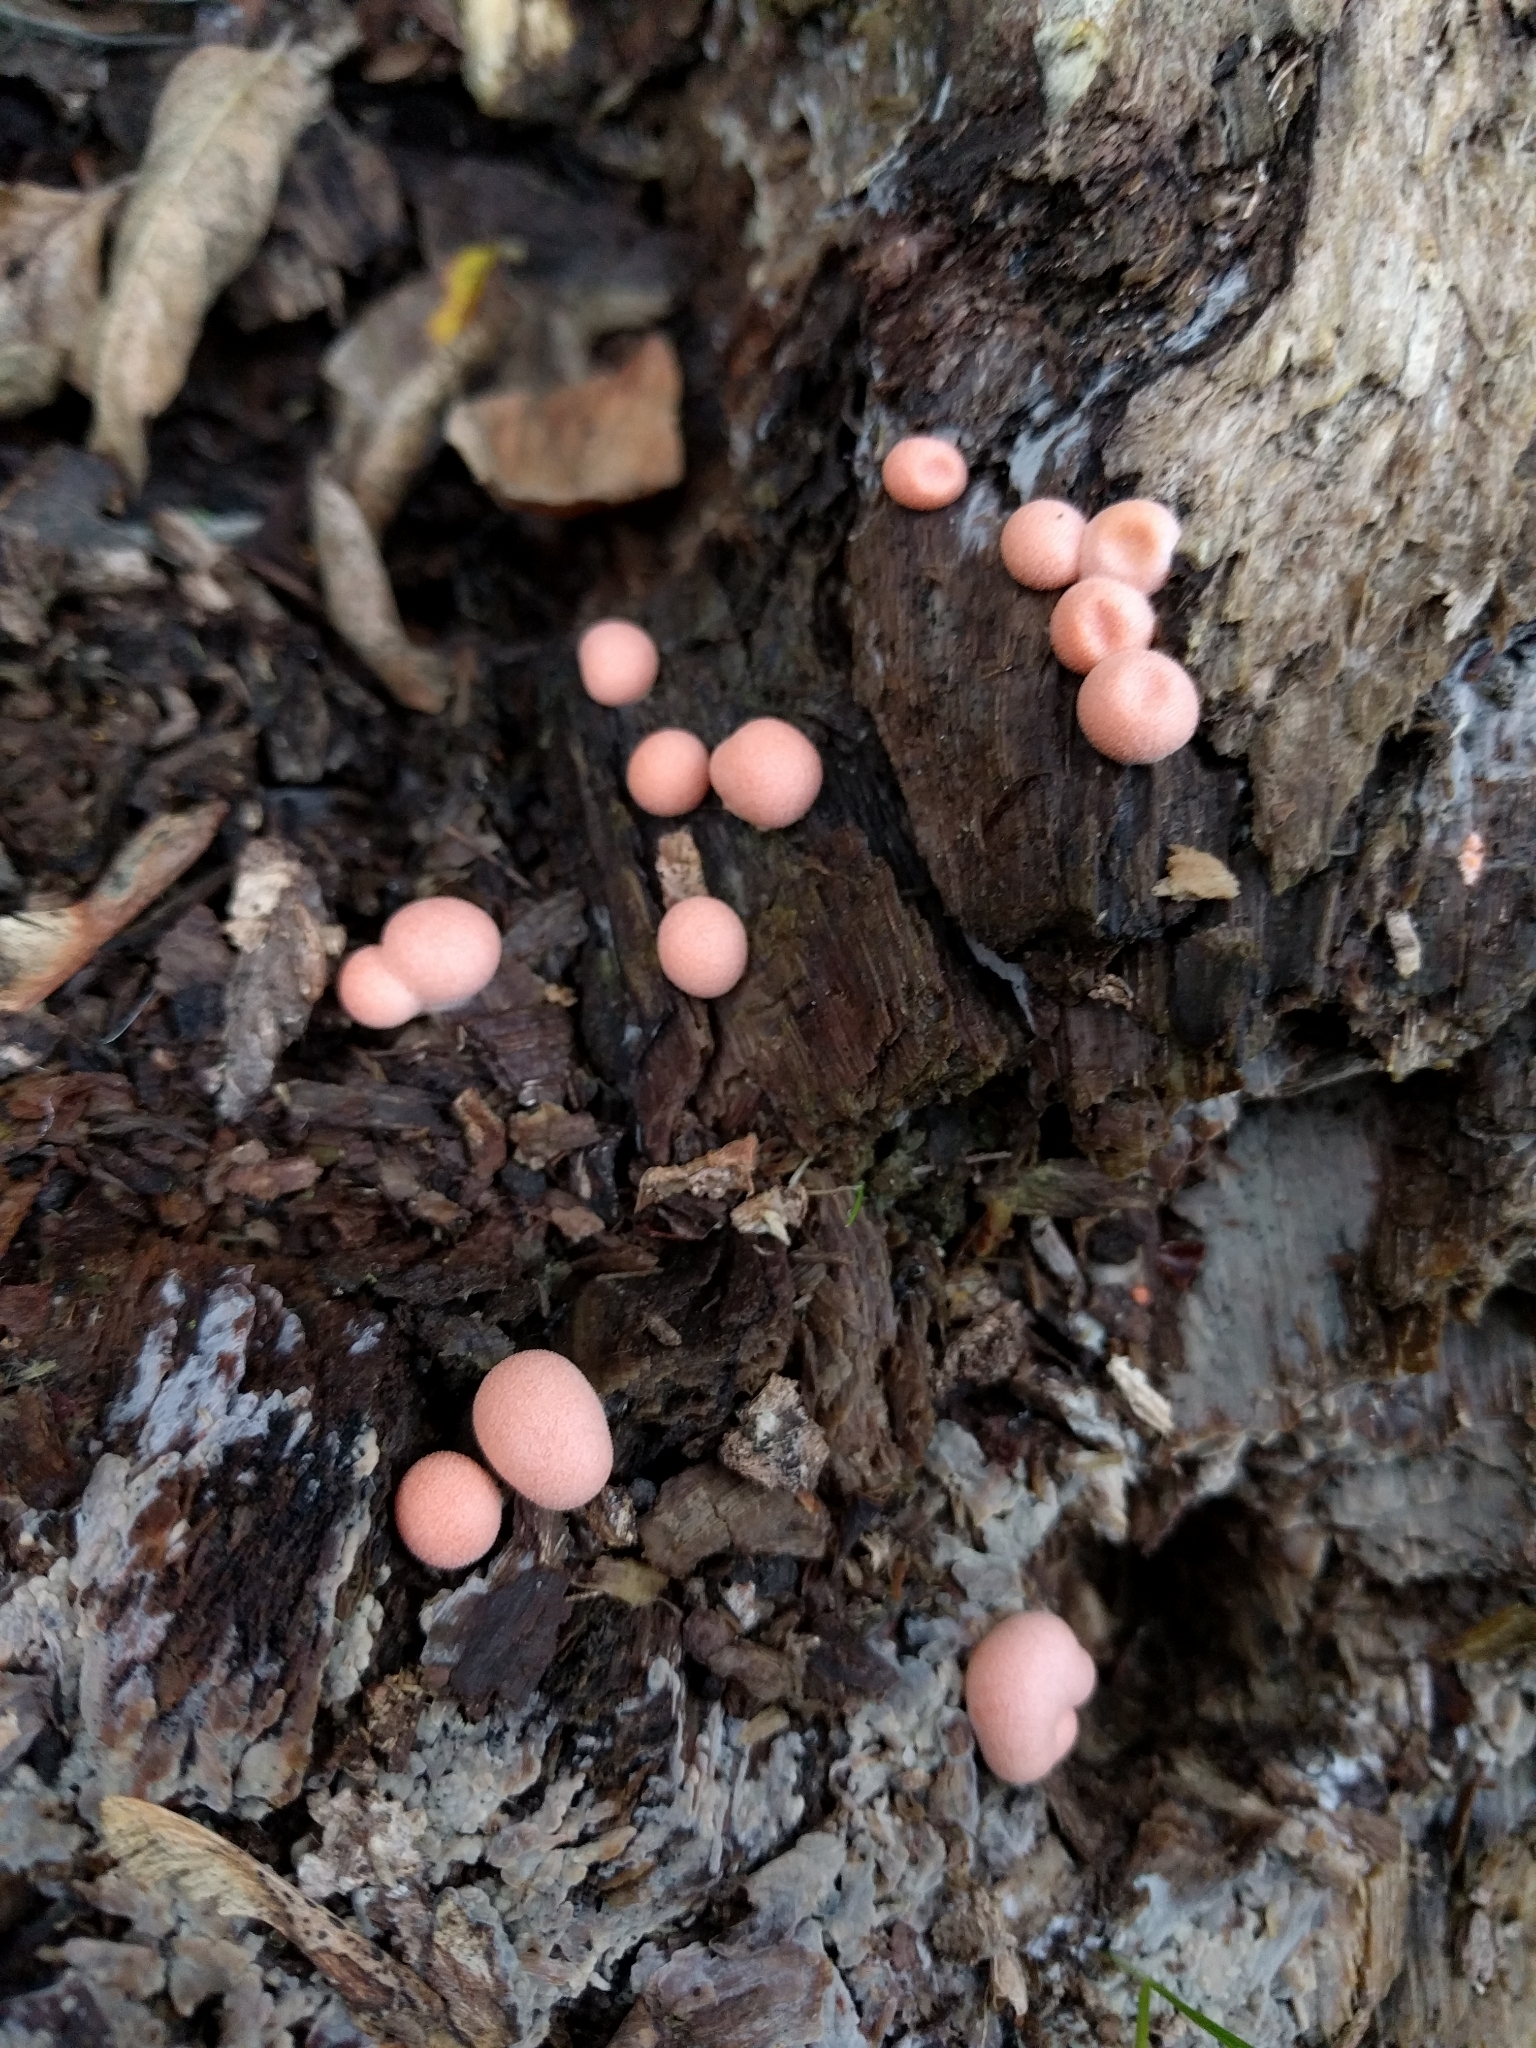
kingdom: Protozoa
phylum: Mycetozoa
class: Myxomycetes
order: Cribrariales
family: Tubiferaceae
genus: Lycogala
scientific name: Lycogala epidendrum
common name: Wolf's milk
